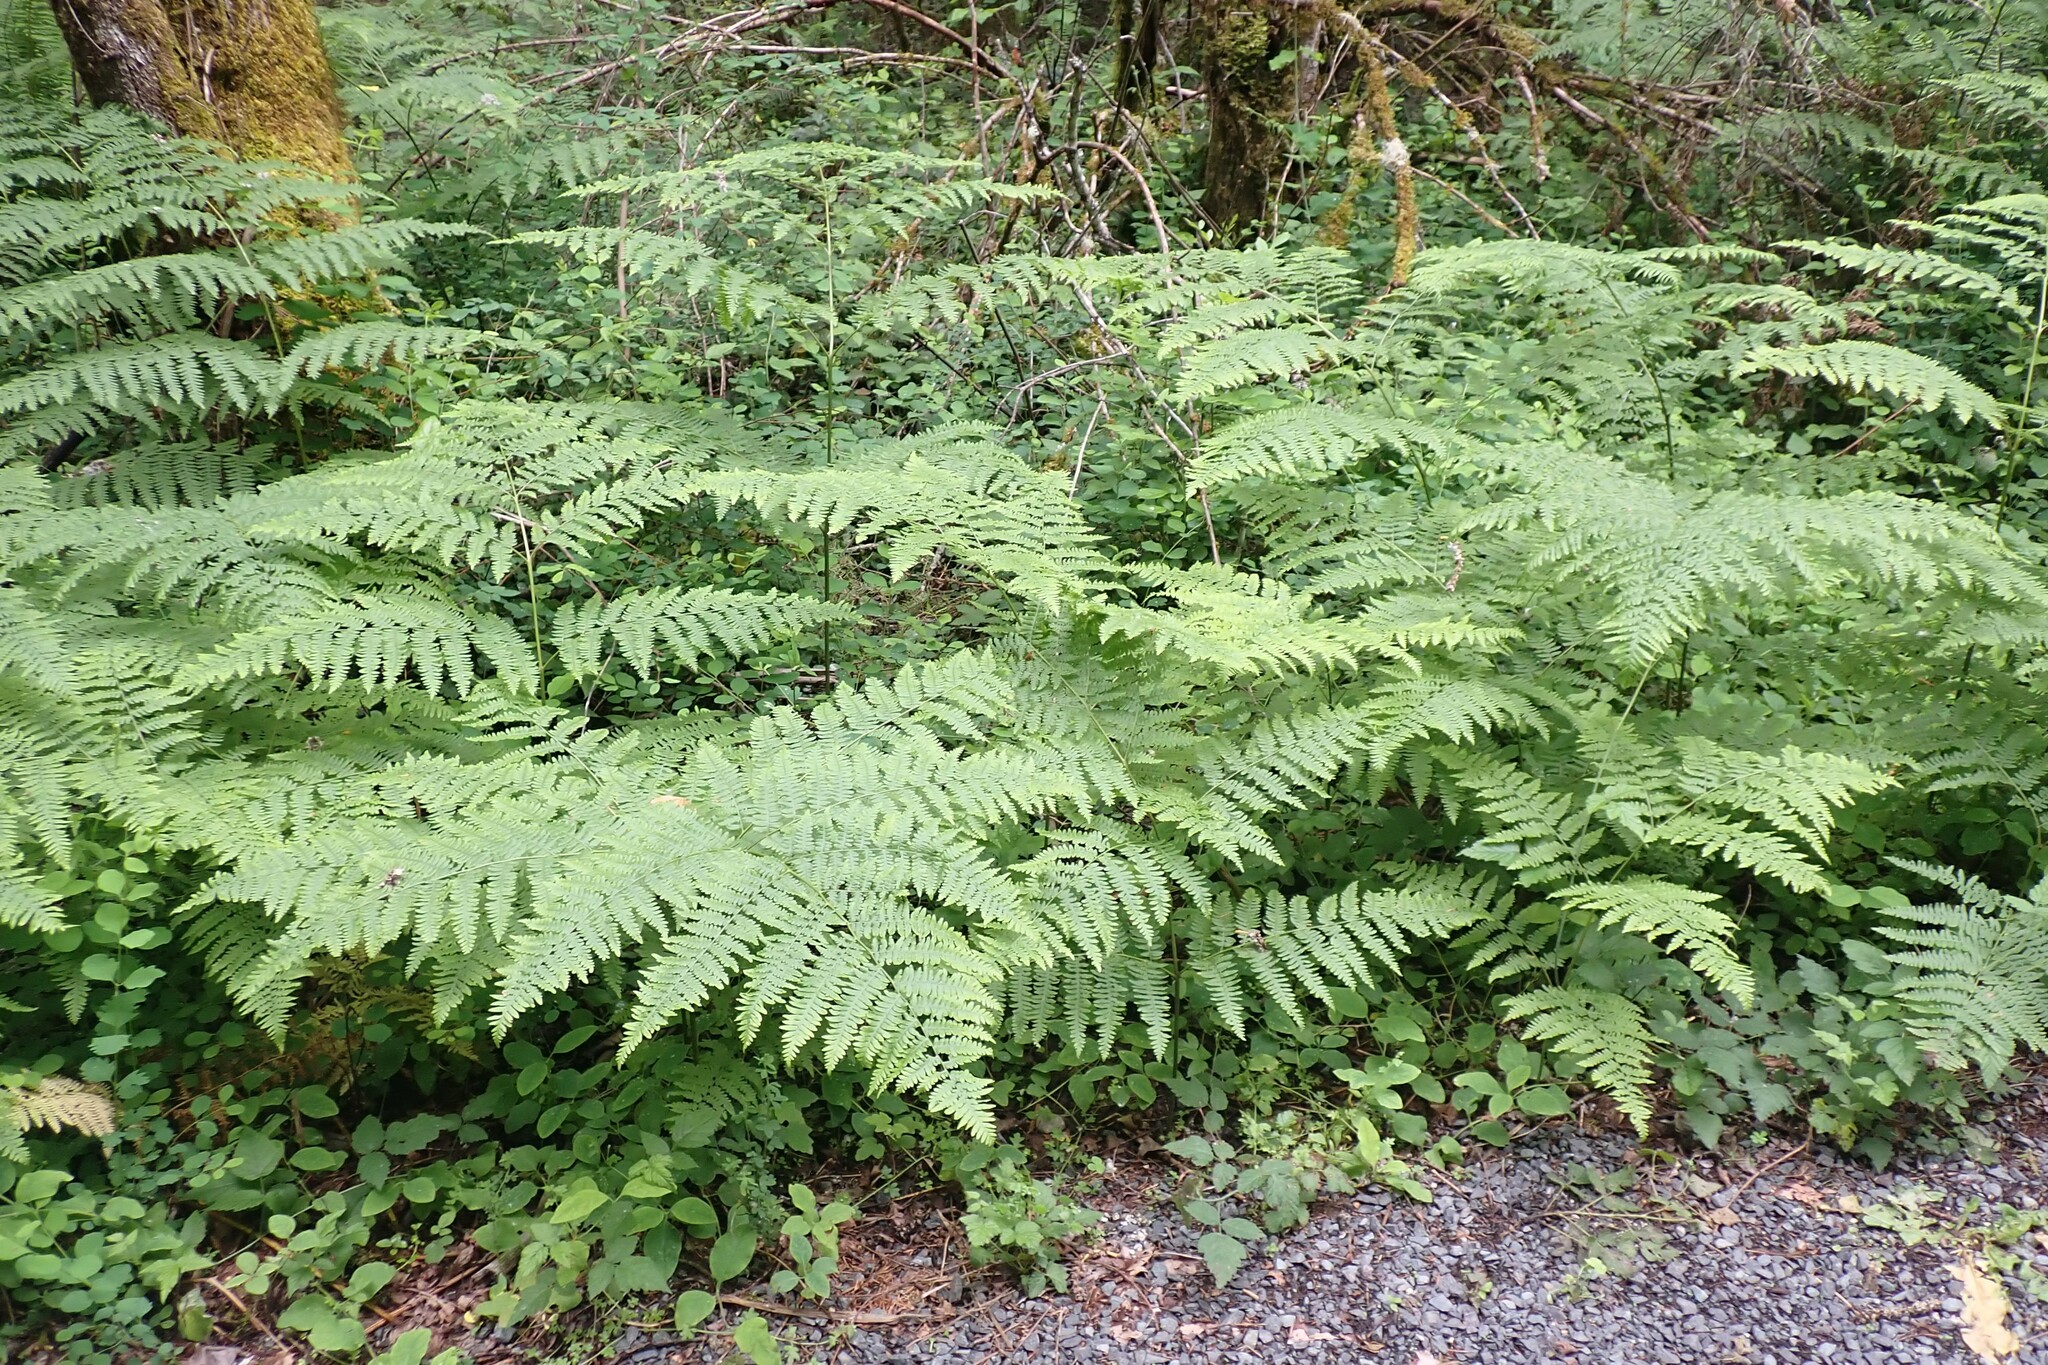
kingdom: Plantae
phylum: Tracheophyta
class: Polypodiopsida
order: Polypodiales
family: Dennstaedtiaceae
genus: Pteridium
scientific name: Pteridium aquilinum
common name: Bracken
